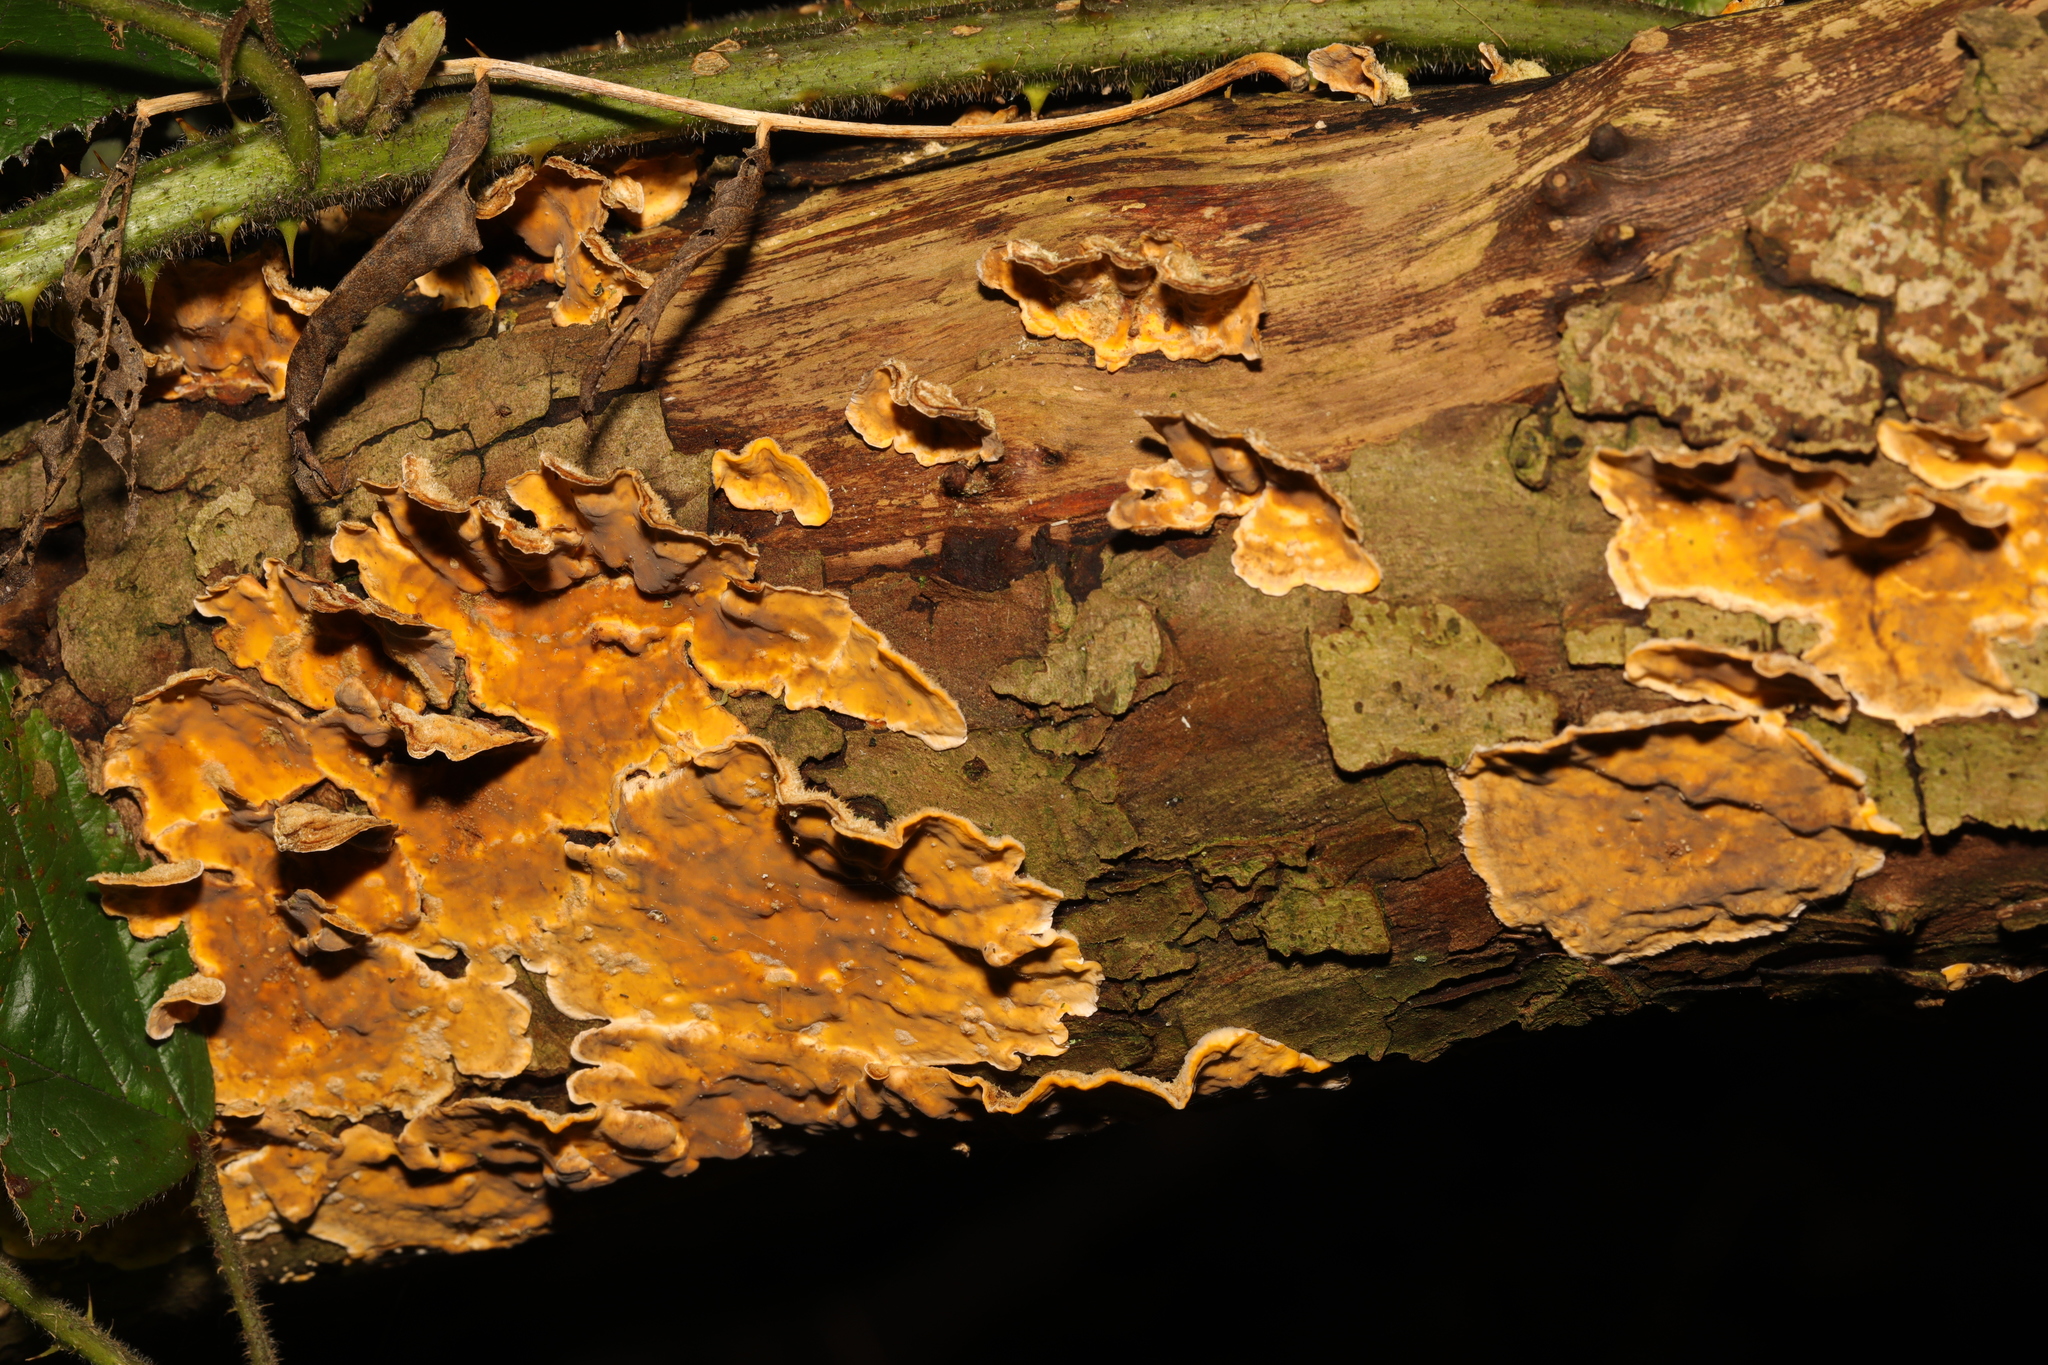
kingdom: Fungi
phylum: Basidiomycota
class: Agaricomycetes
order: Russulales
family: Stereaceae
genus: Stereum
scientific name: Stereum hirsutum
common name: Hairy curtain crust
